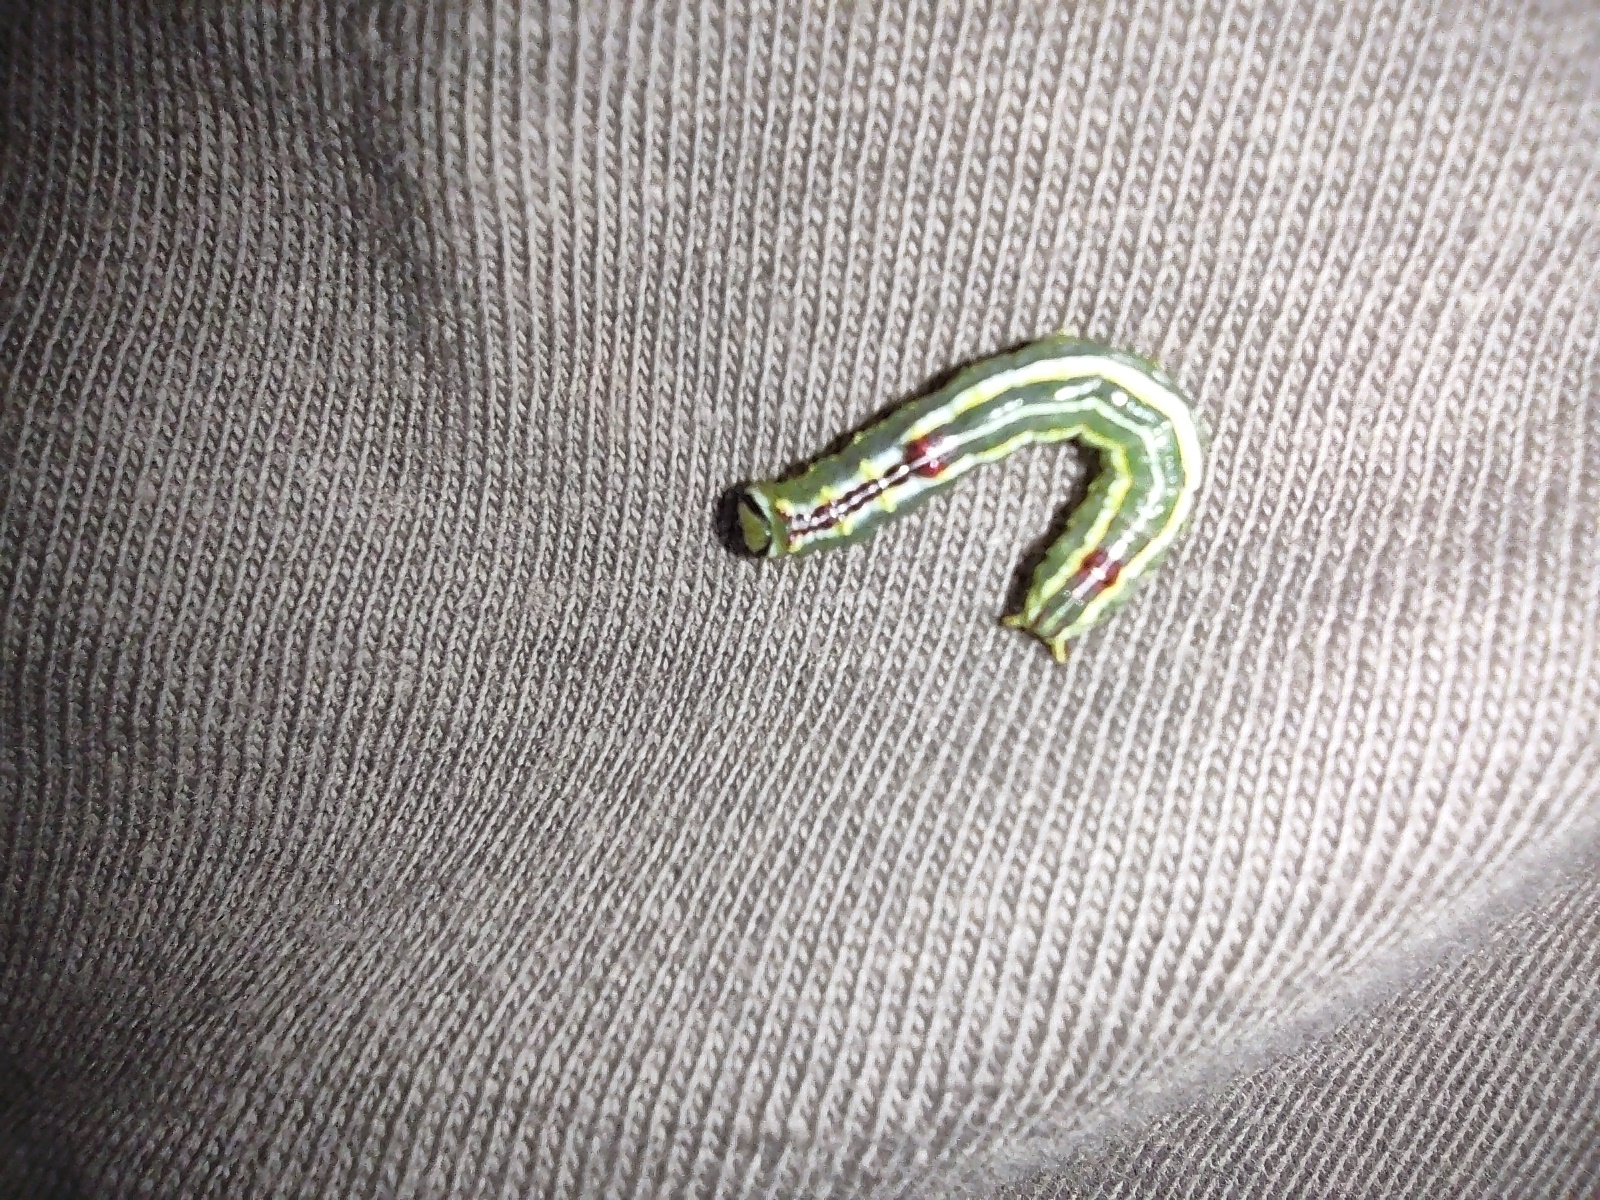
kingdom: Animalia
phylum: Arthropoda
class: Insecta
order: Lepidoptera
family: Notodontidae
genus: Lochmaeus
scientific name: Lochmaeus manteo
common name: Variable oakleaf caterpillar moth
